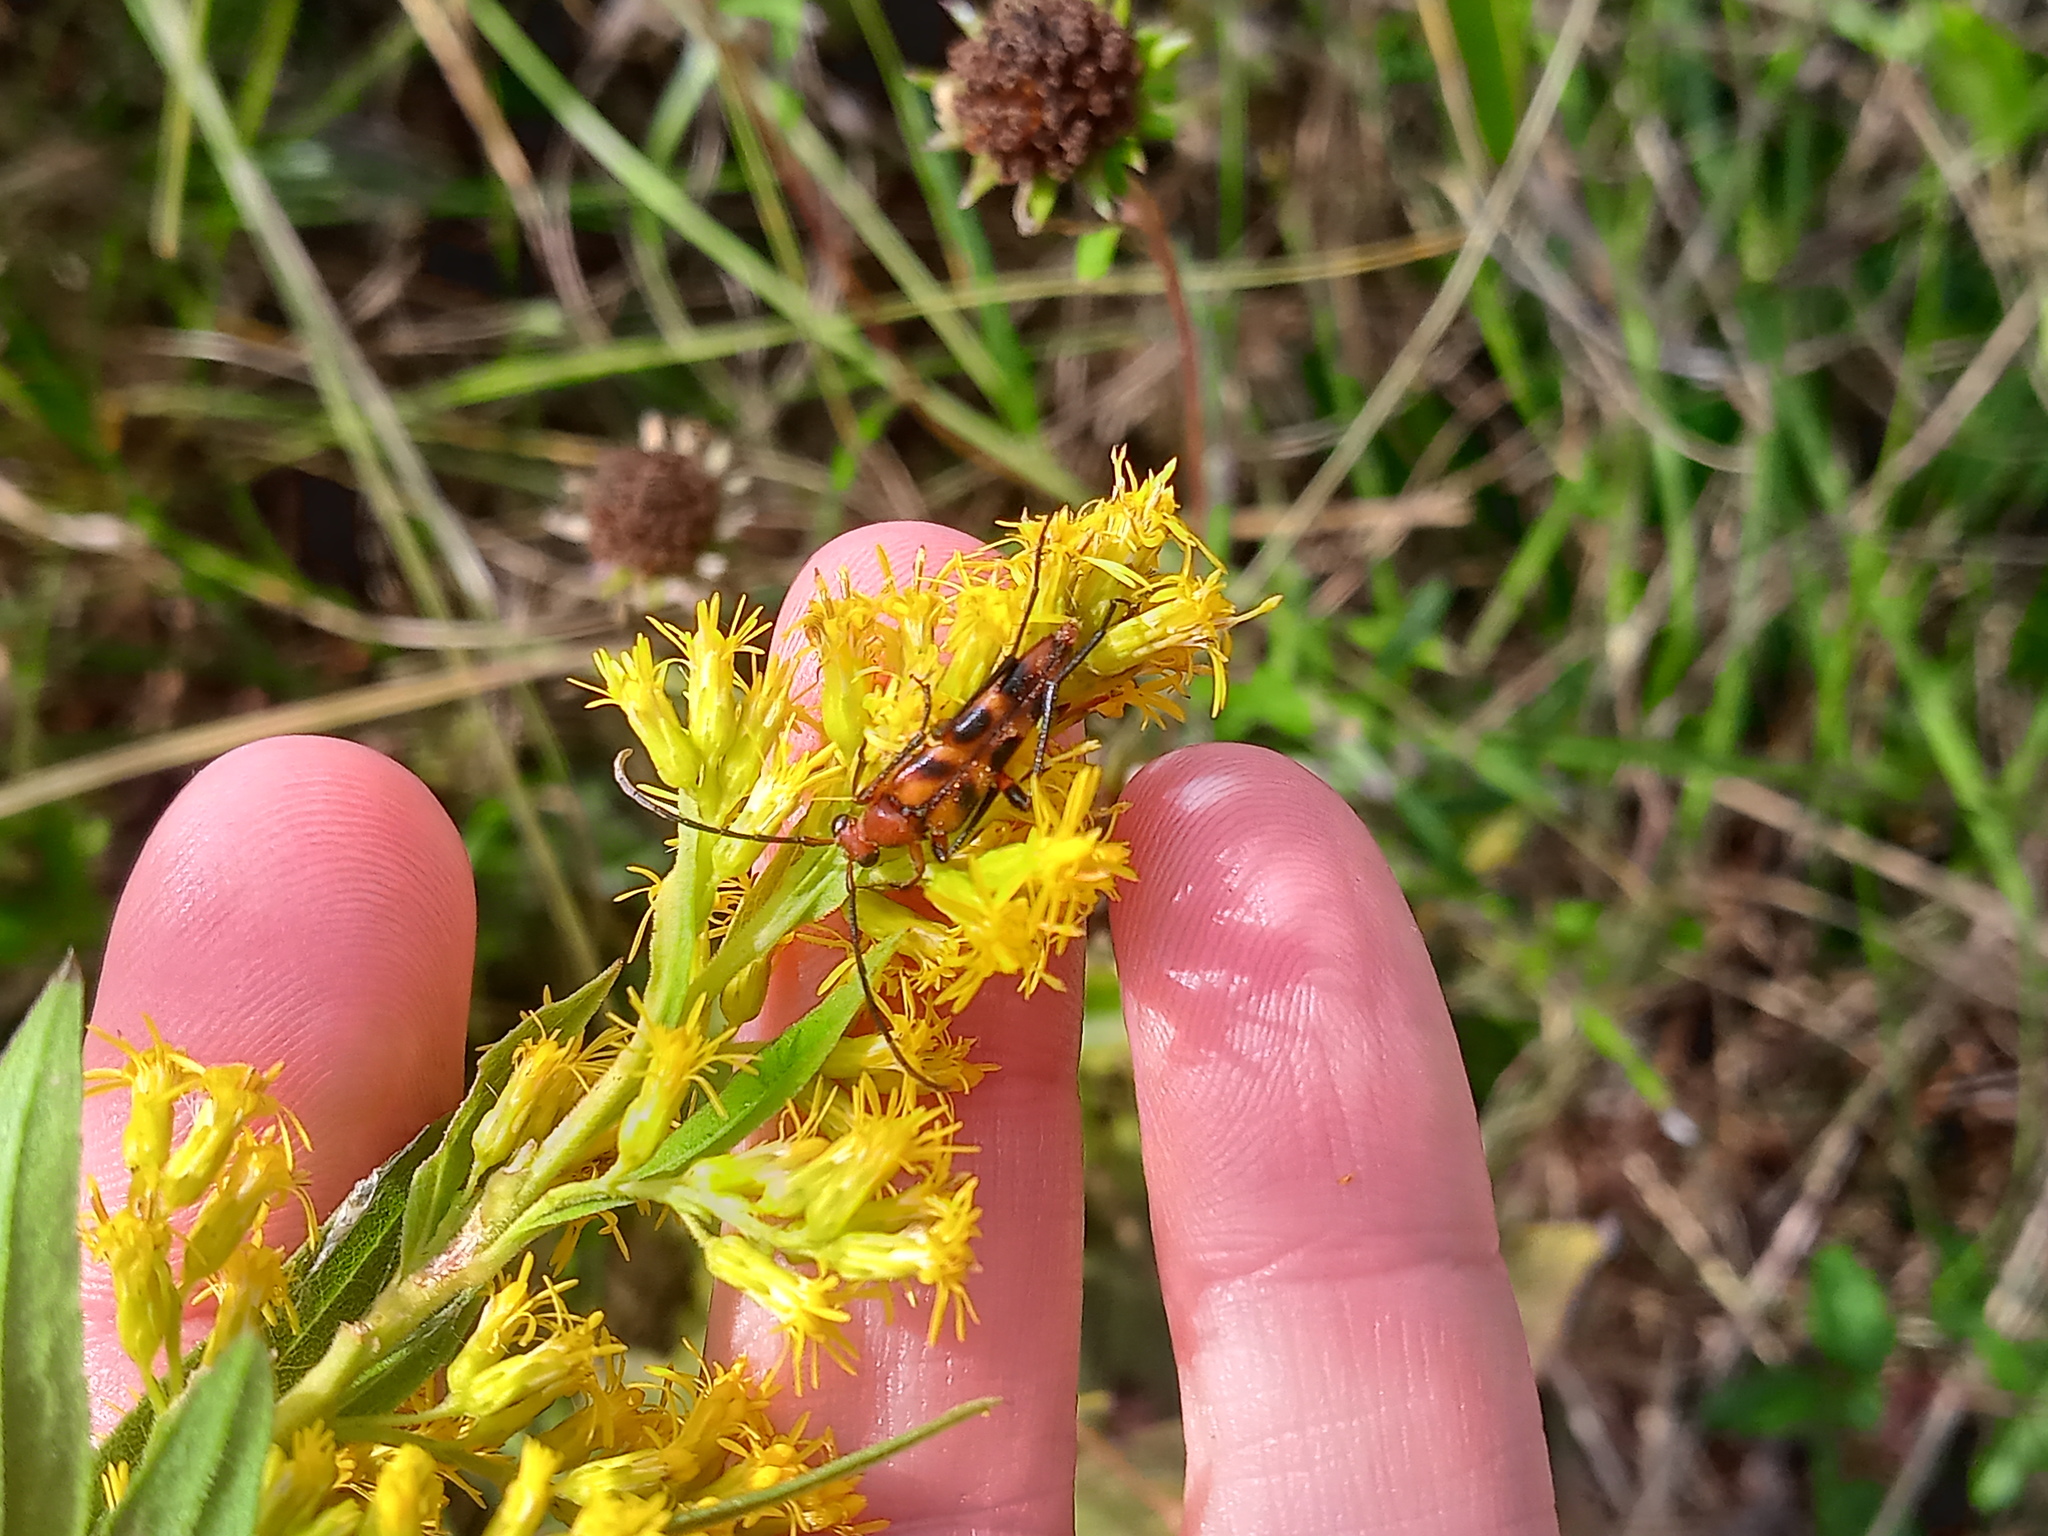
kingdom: Animalia
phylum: Arthropoda
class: Insecta
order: Coleoptera
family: Cerambycidae
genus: Strangalia
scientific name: Strangalia sexnotata
